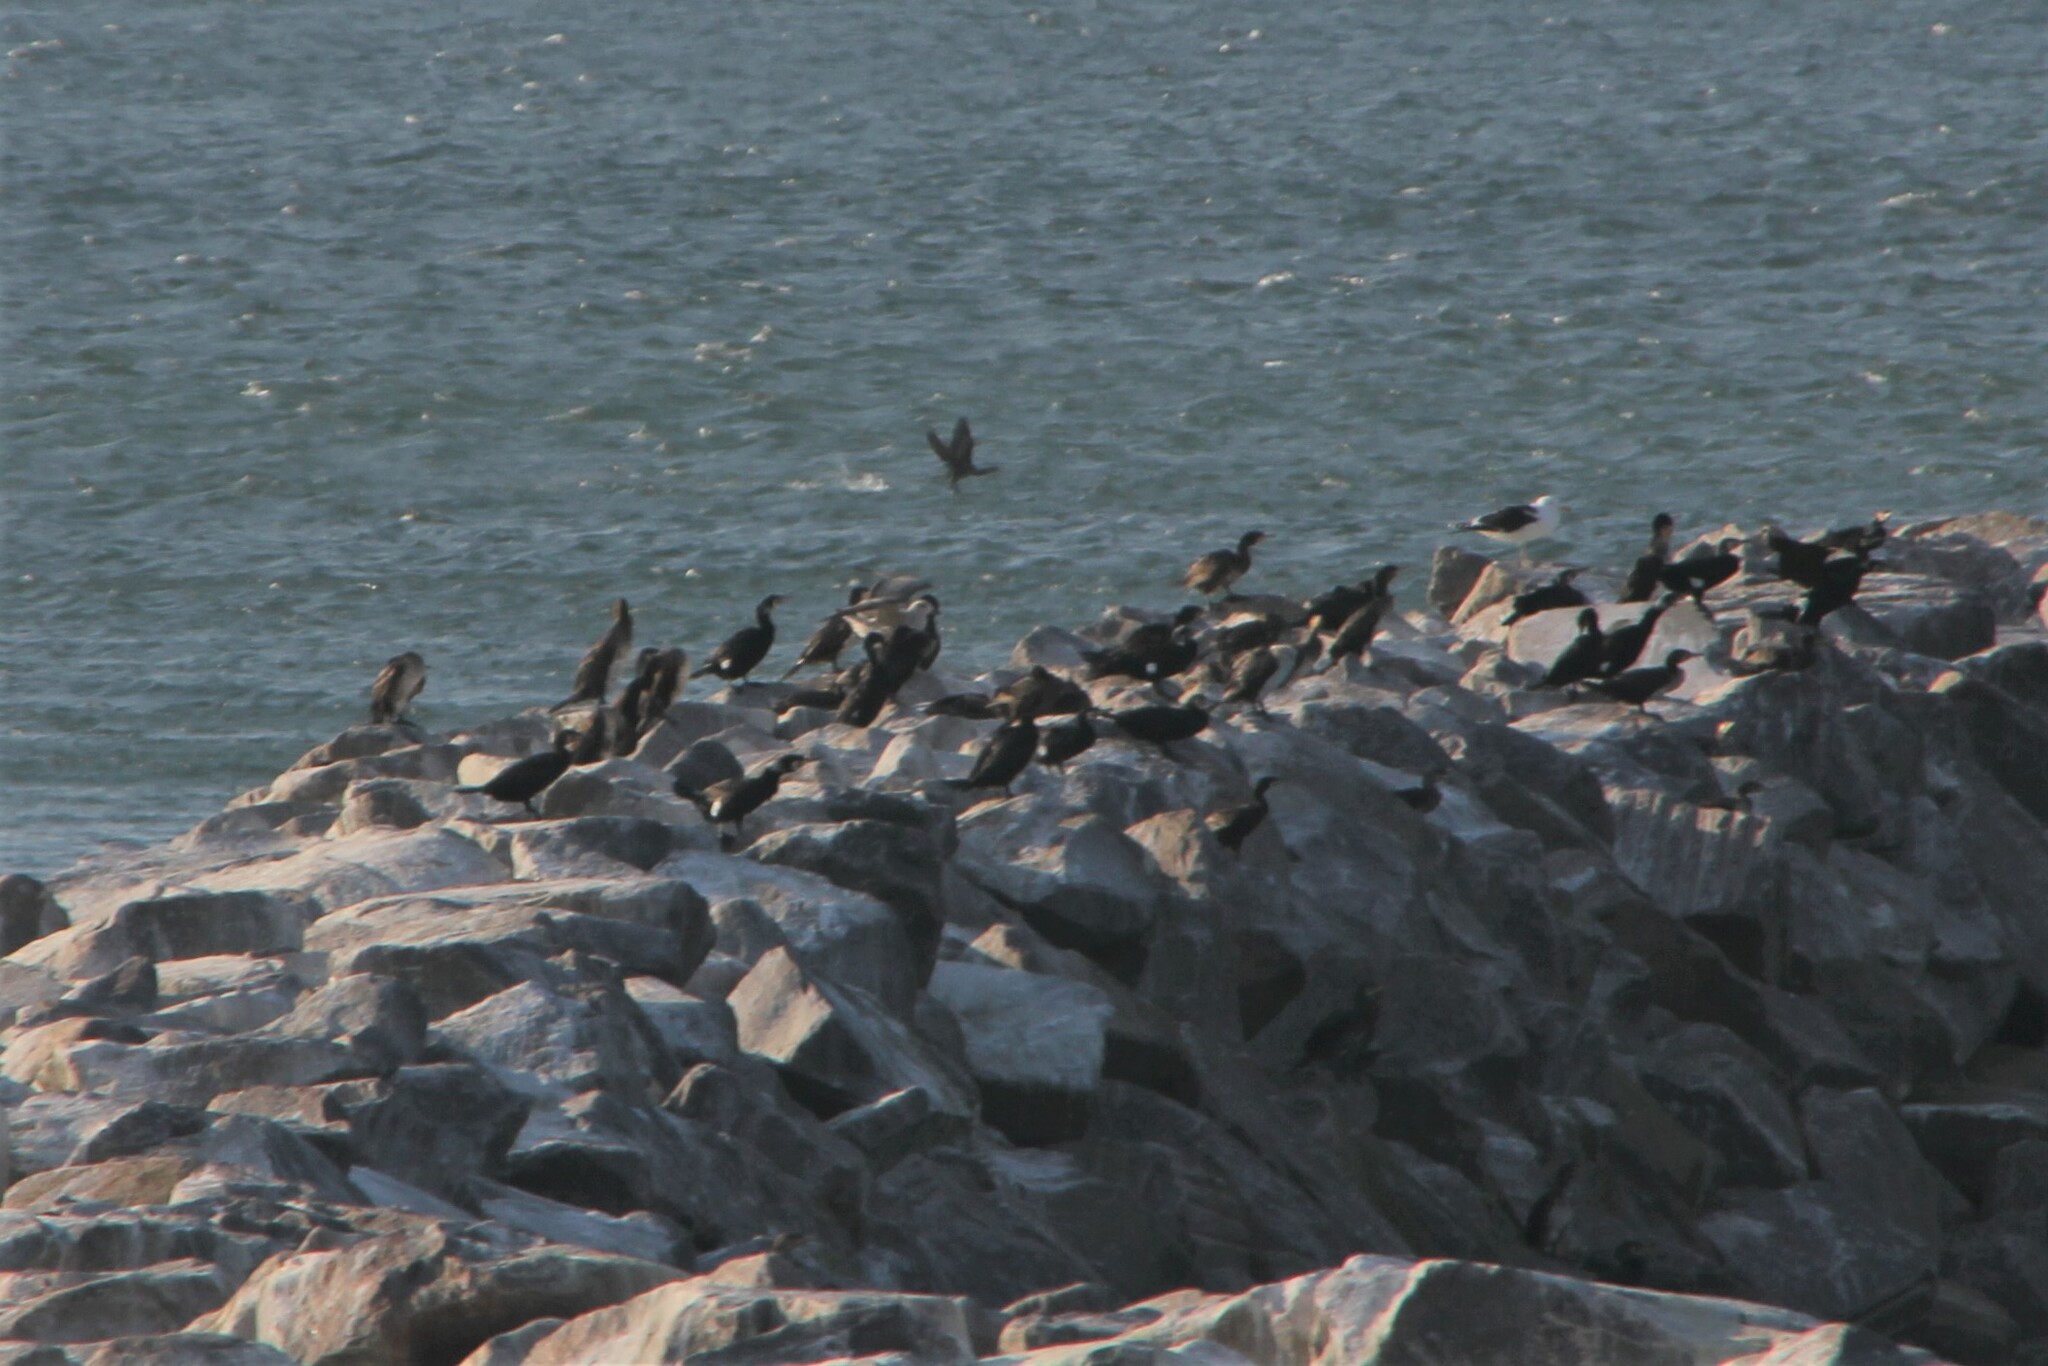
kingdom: Animalia
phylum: Chordata
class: Aves
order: Suliformes
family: Phalacrocoracidae
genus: Phalacrocorax
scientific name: Phalacrocorax carbo
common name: Great cormorant
